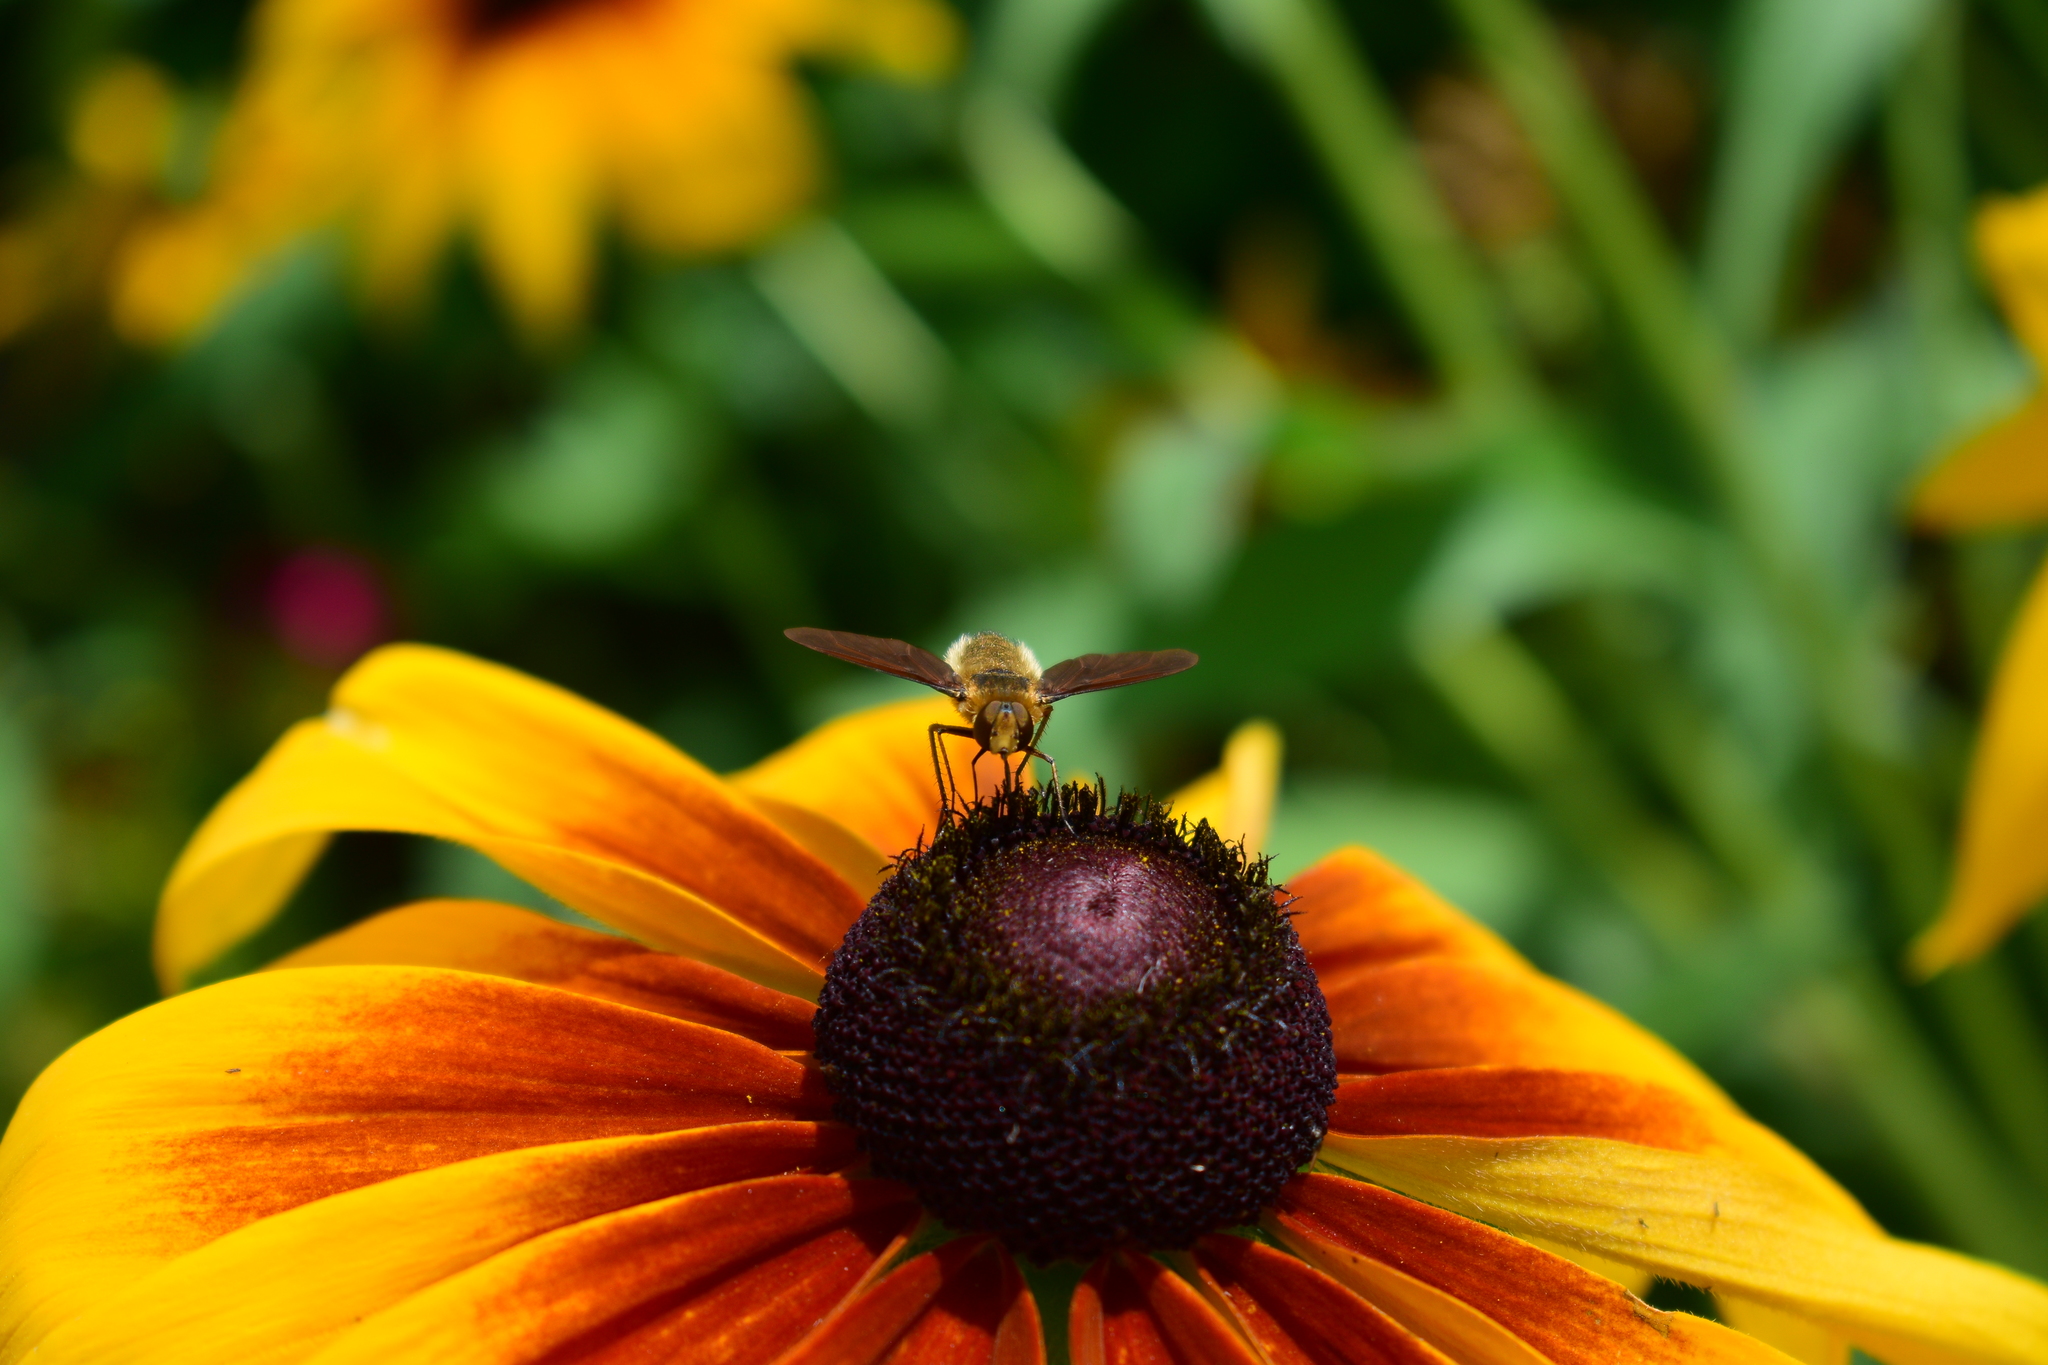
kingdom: Animalia
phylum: Arthropoda
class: Insecta
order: Diptera
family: Bombyliidae
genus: Poecilanthrax
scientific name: Poecilanthrax tegminipennis
